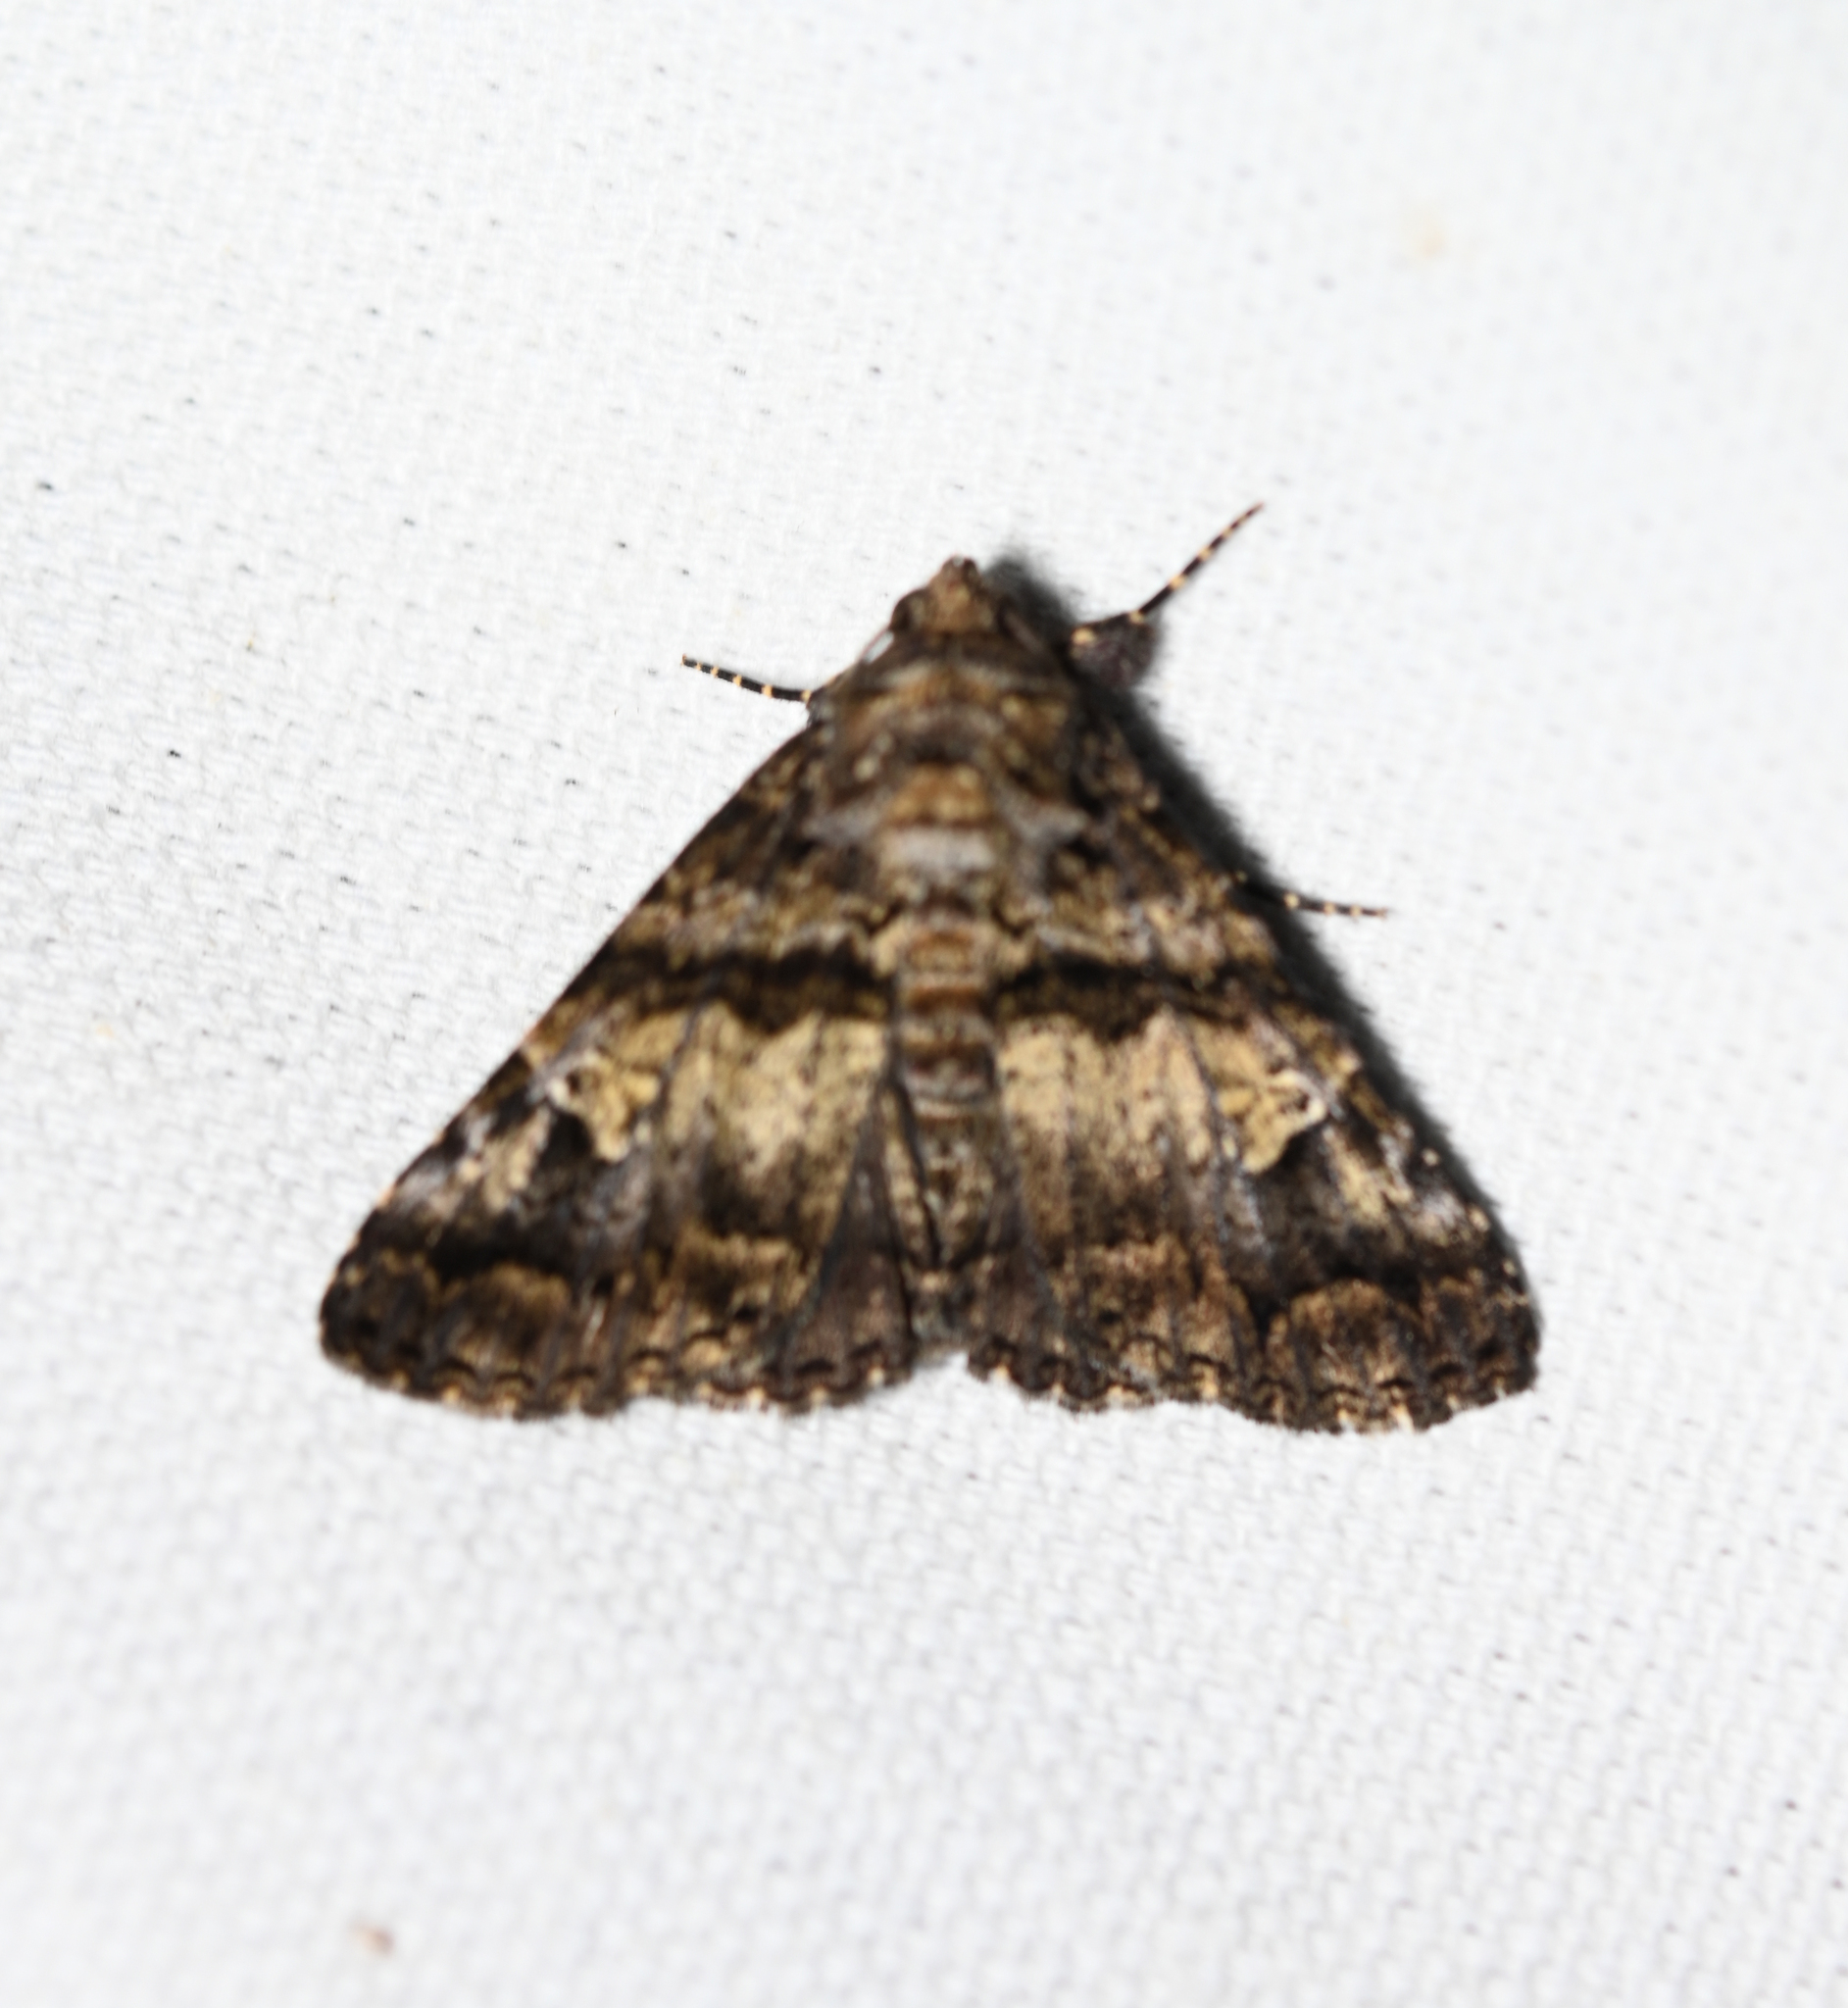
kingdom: Animalia
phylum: Arthropoda
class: Insecta
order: Lepidoptera
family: Erebidae
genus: Metria
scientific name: Metria amella
